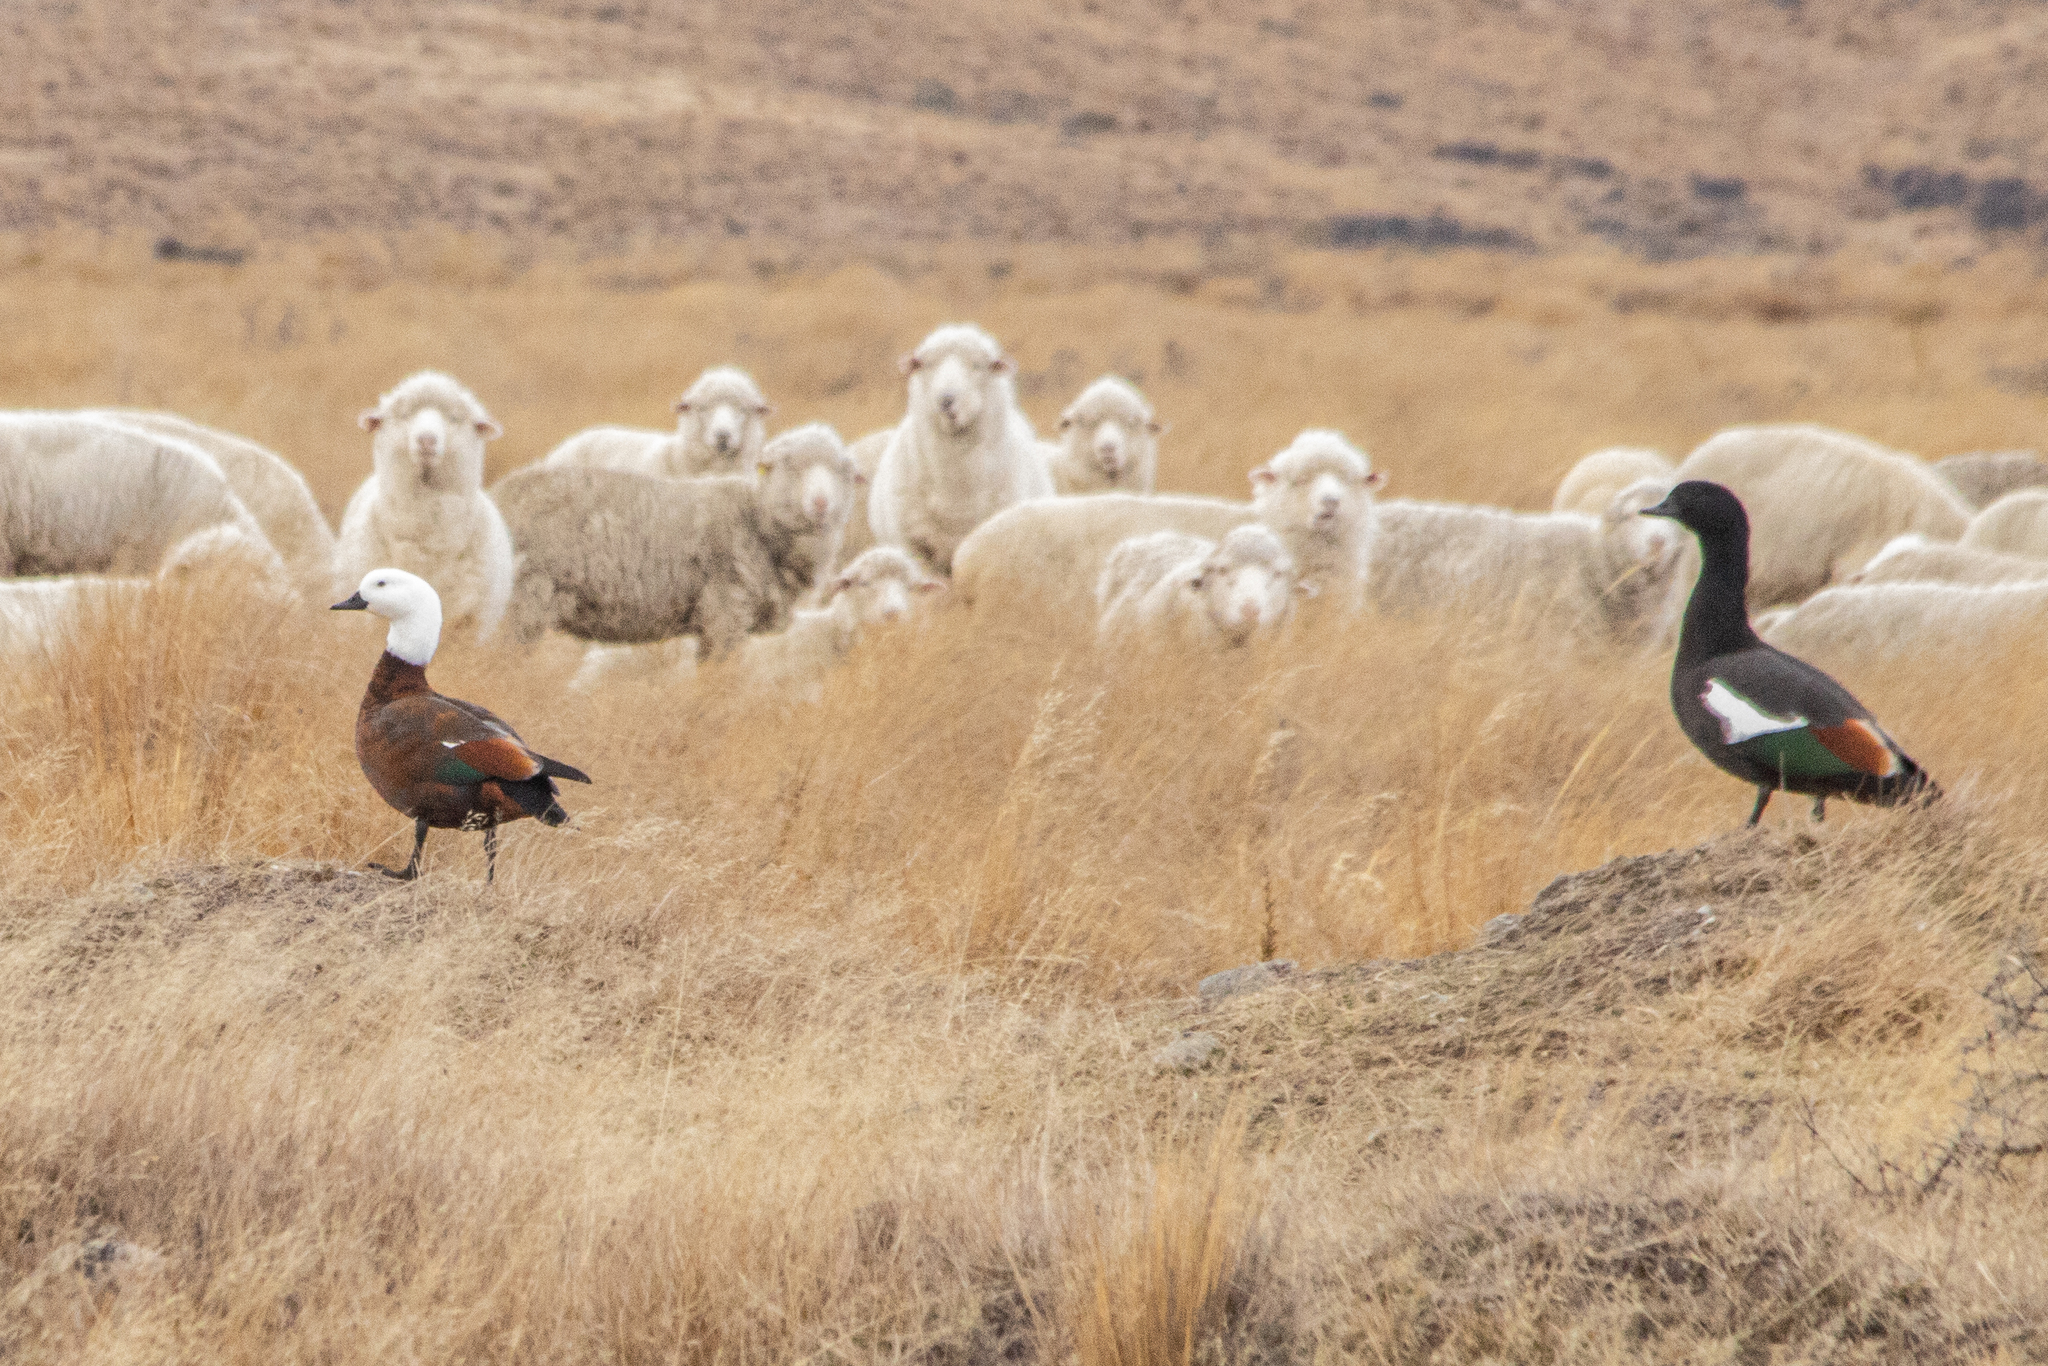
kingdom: Animalia
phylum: Chordata
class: Aves
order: Anseriformes
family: Anatidae
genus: Tadorna
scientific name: Tadorna variegata
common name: Paradise shelduck
